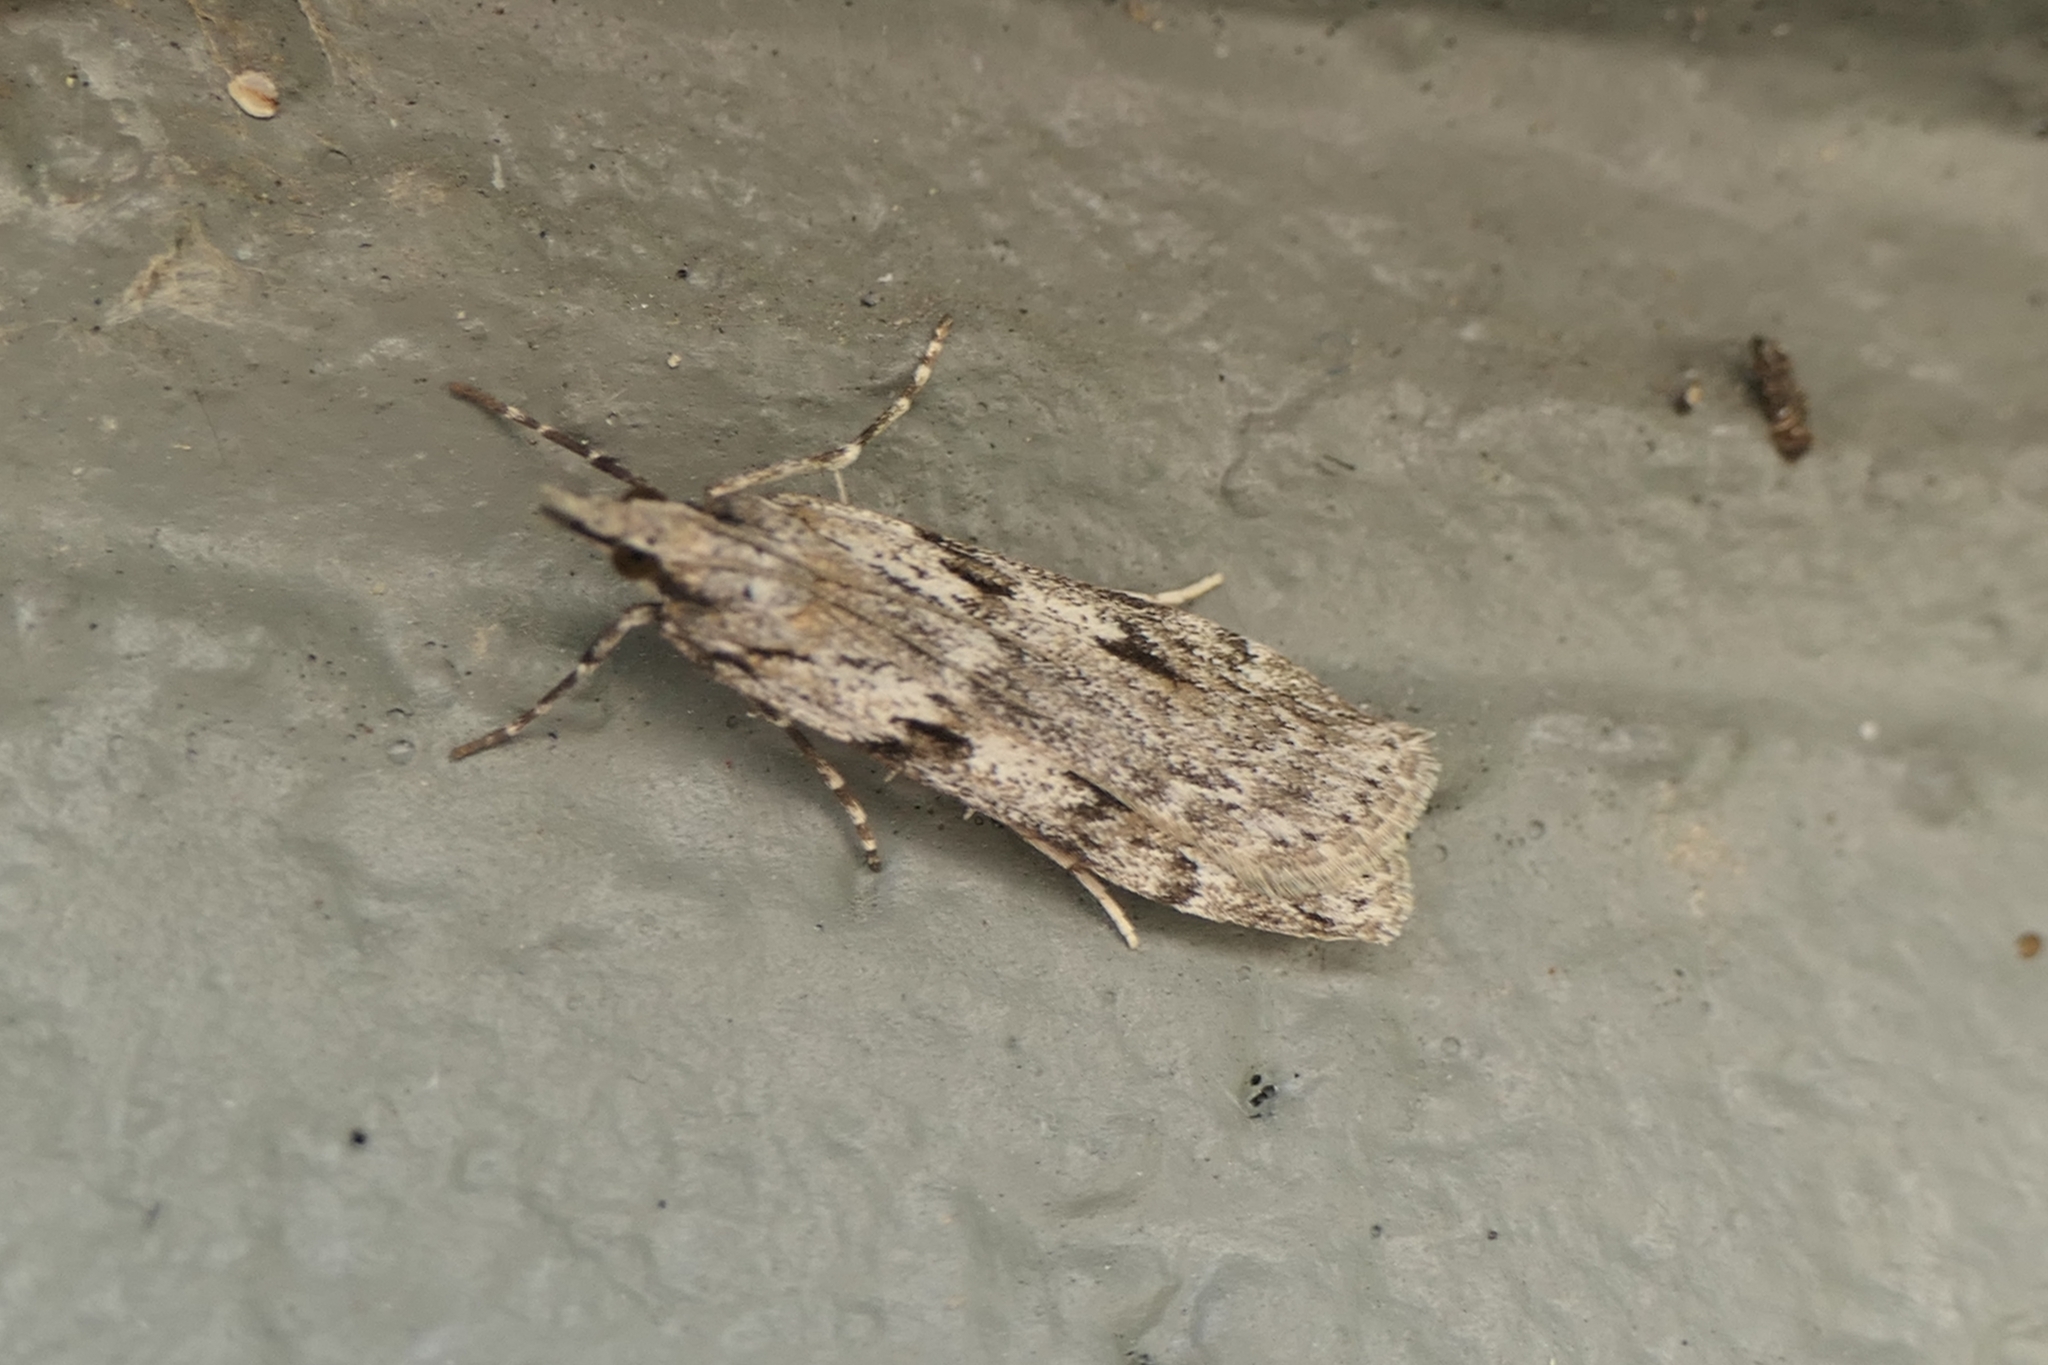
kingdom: Animalia
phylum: Arthropoda
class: Insecta
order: Lepidoptera
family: Crambidae
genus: Scoparia
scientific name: Scoparia halopis
